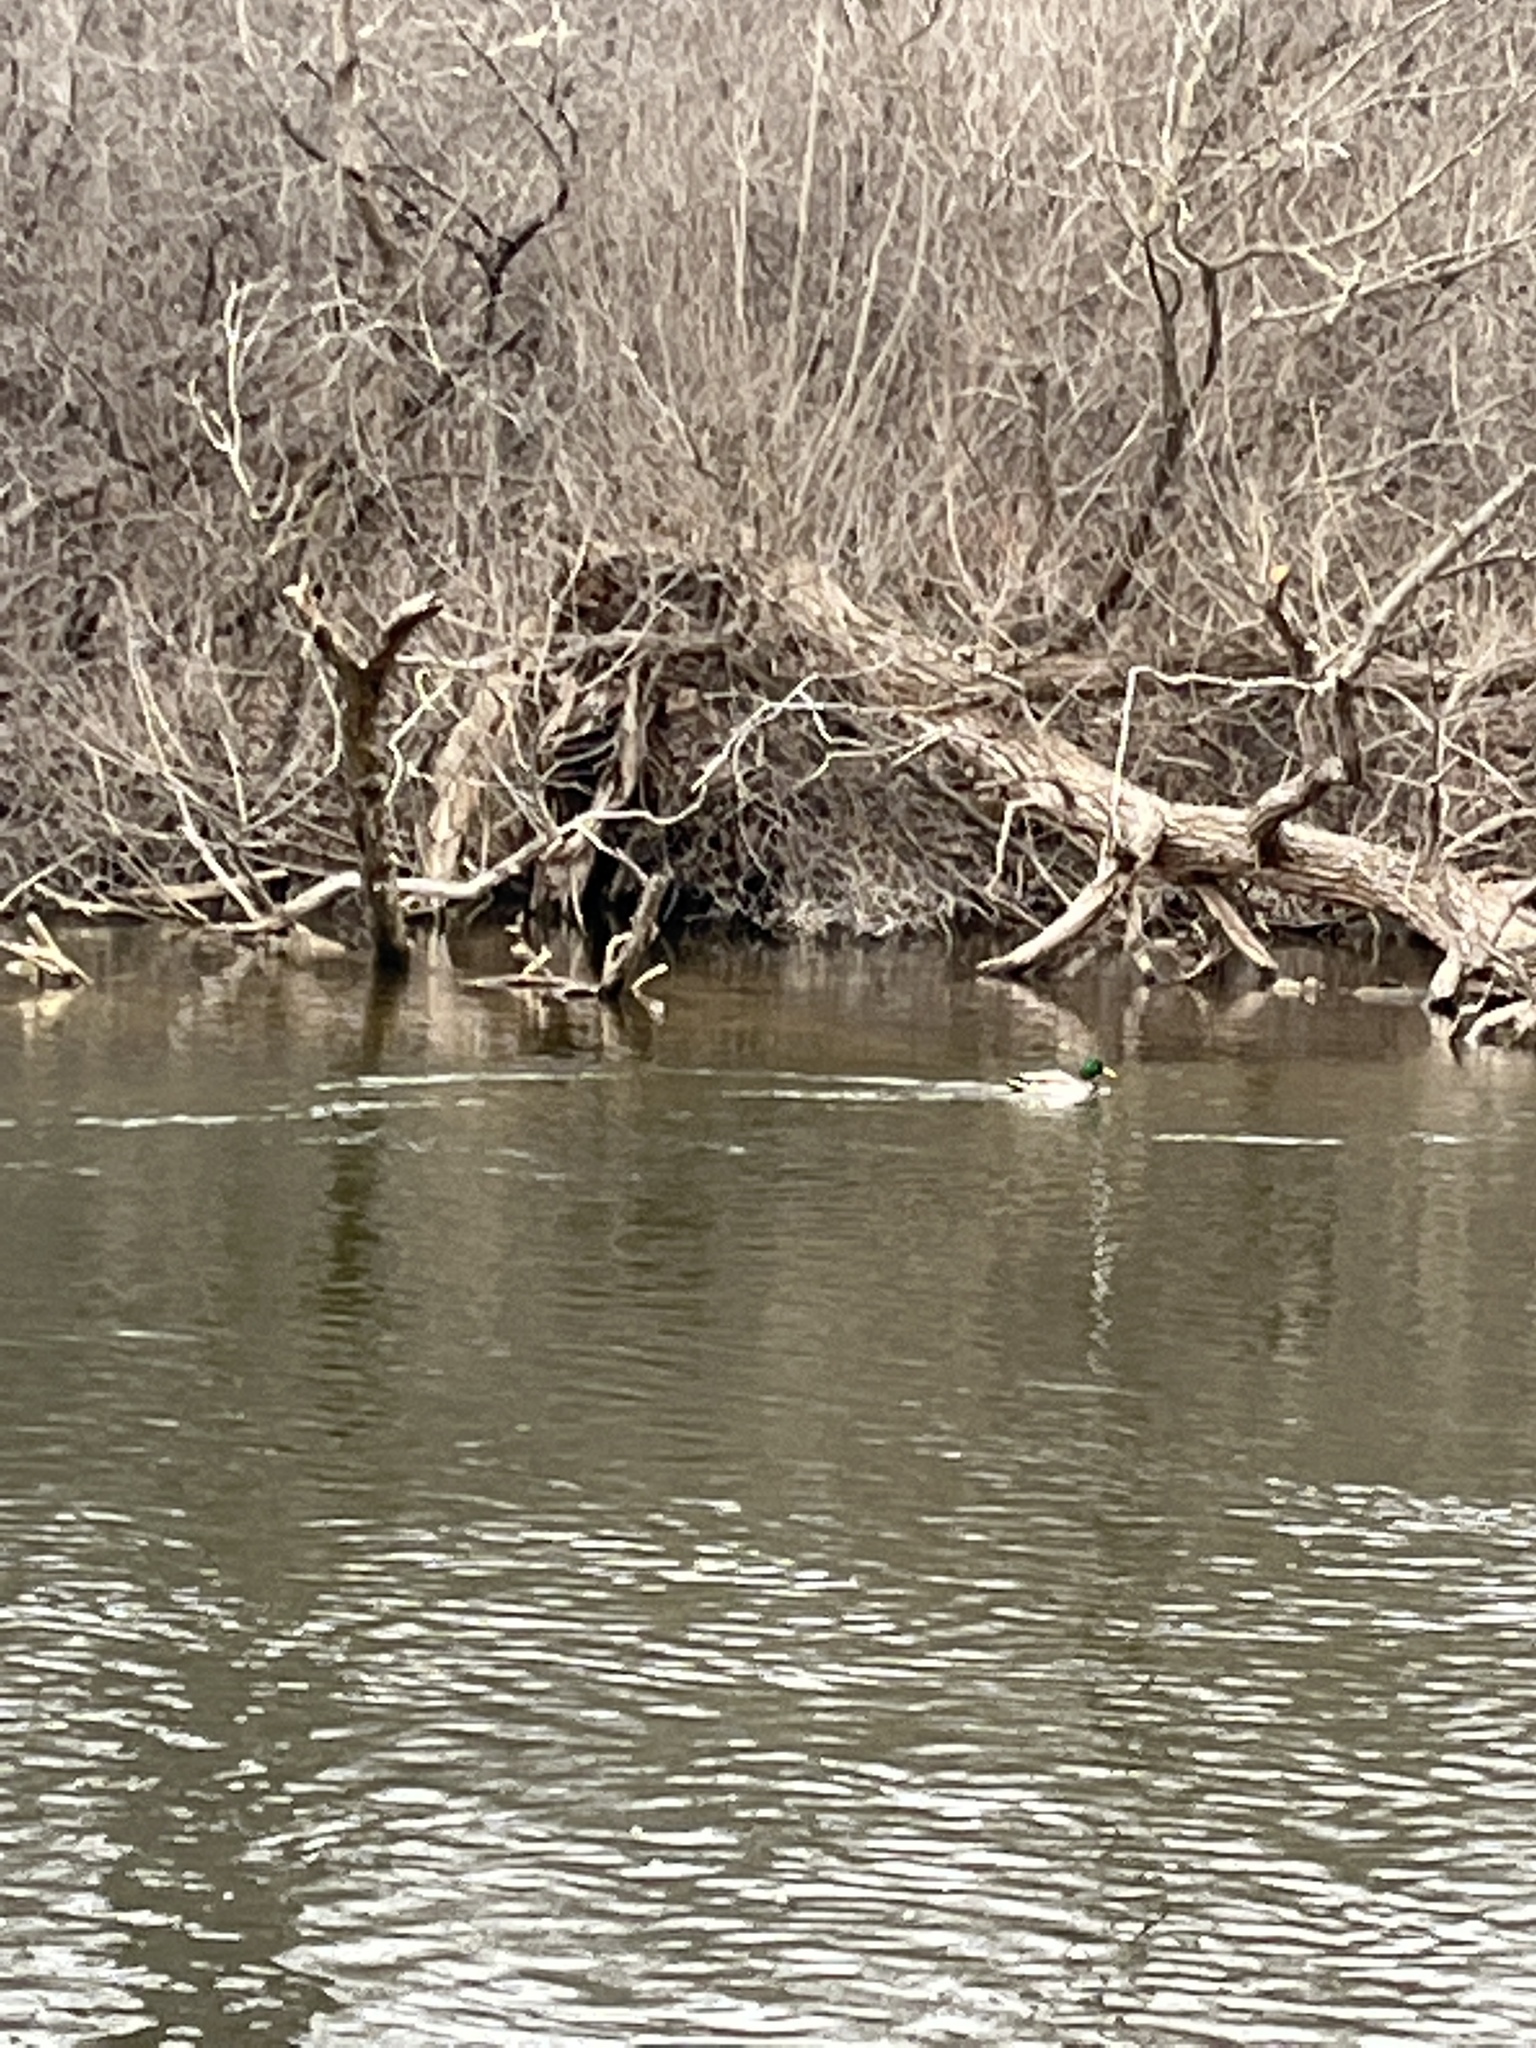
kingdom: Animalia
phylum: Chordata
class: Aves
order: Anseriformes
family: Anatidae
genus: Anas
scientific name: Anas platyrhynchos
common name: Mallard
